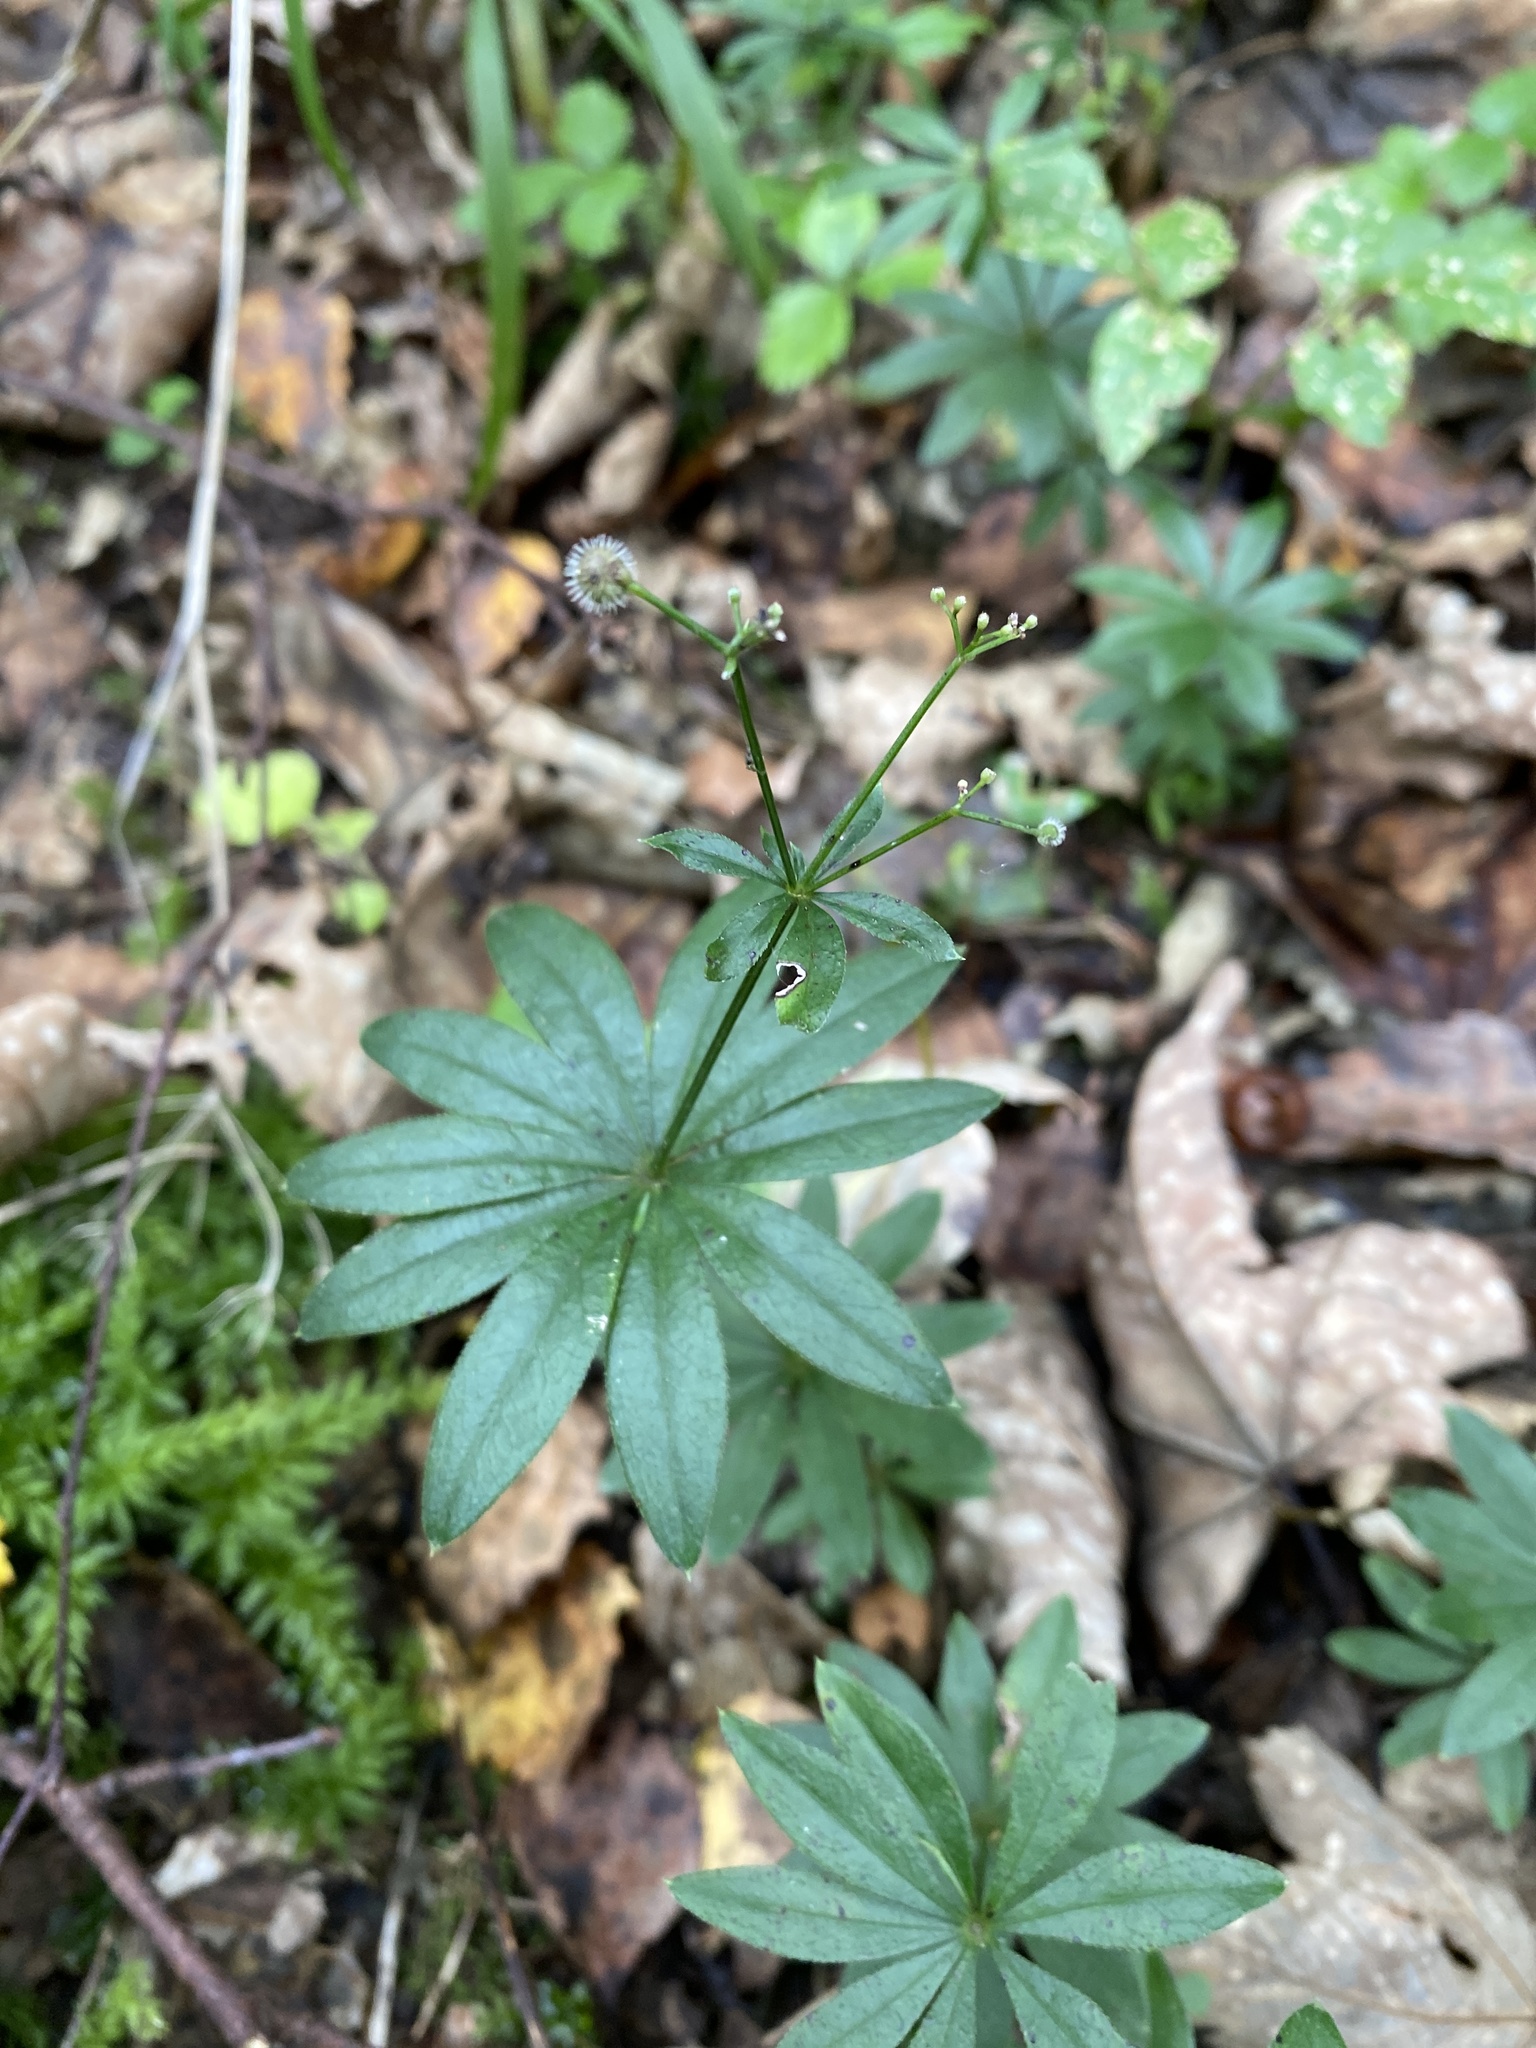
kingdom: Plantae
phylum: Tracheophyta
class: Magnoliopsida
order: Gentianales
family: Rubiaceae
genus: Galium
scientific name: Galium odoratum
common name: Sweet woodruff
